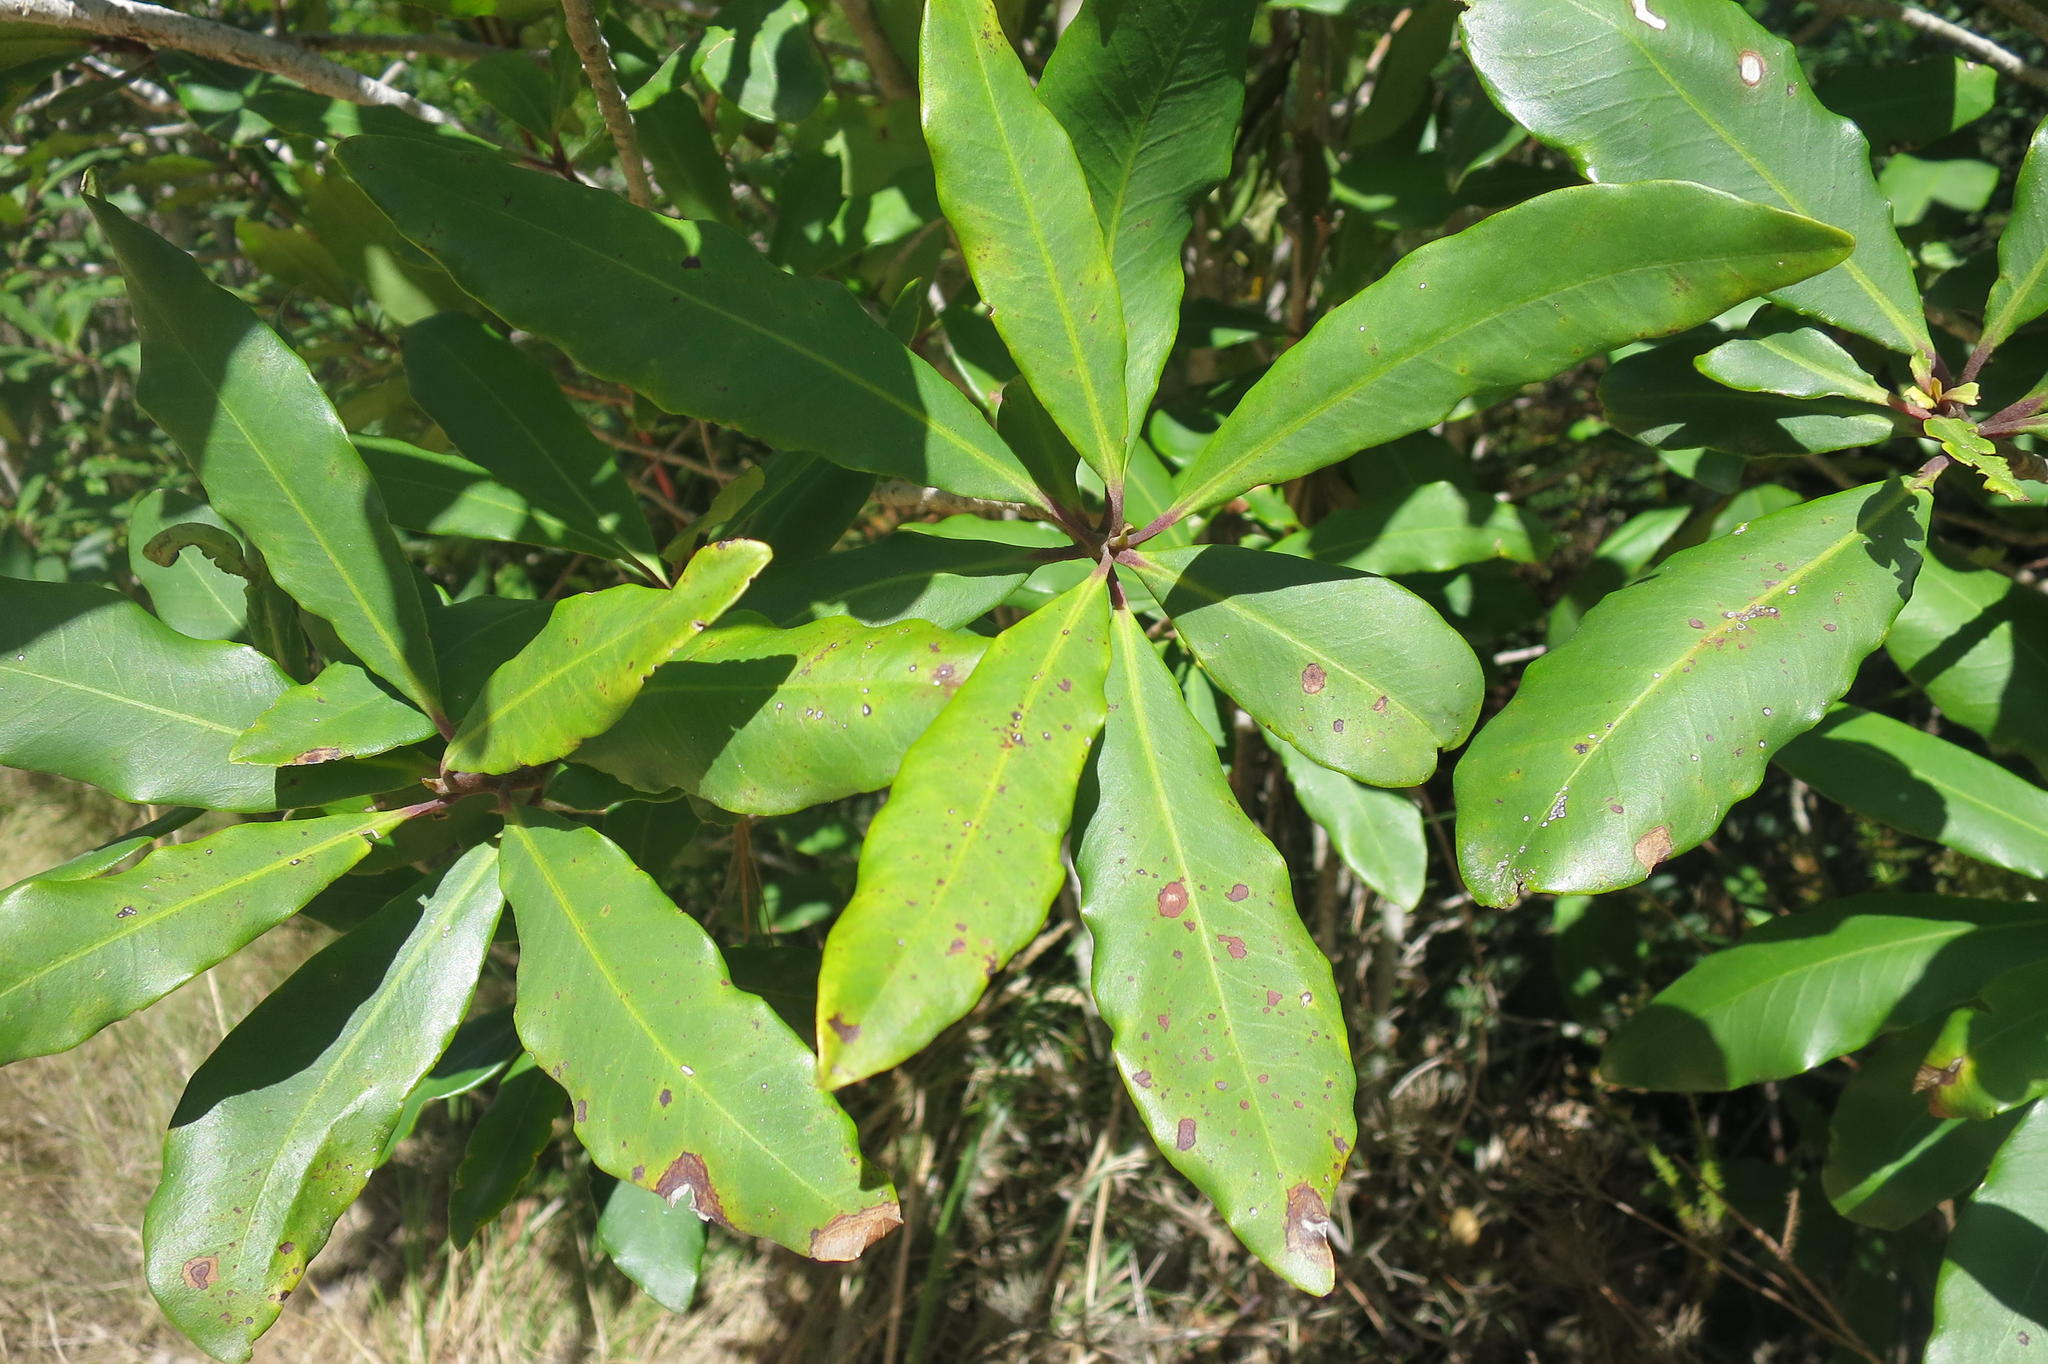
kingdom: Plantae
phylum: Tracheophyta
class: Magnoliopsida
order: Ericales
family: Primulaceae
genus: Myrsine
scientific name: Myrsine melanophloeos
